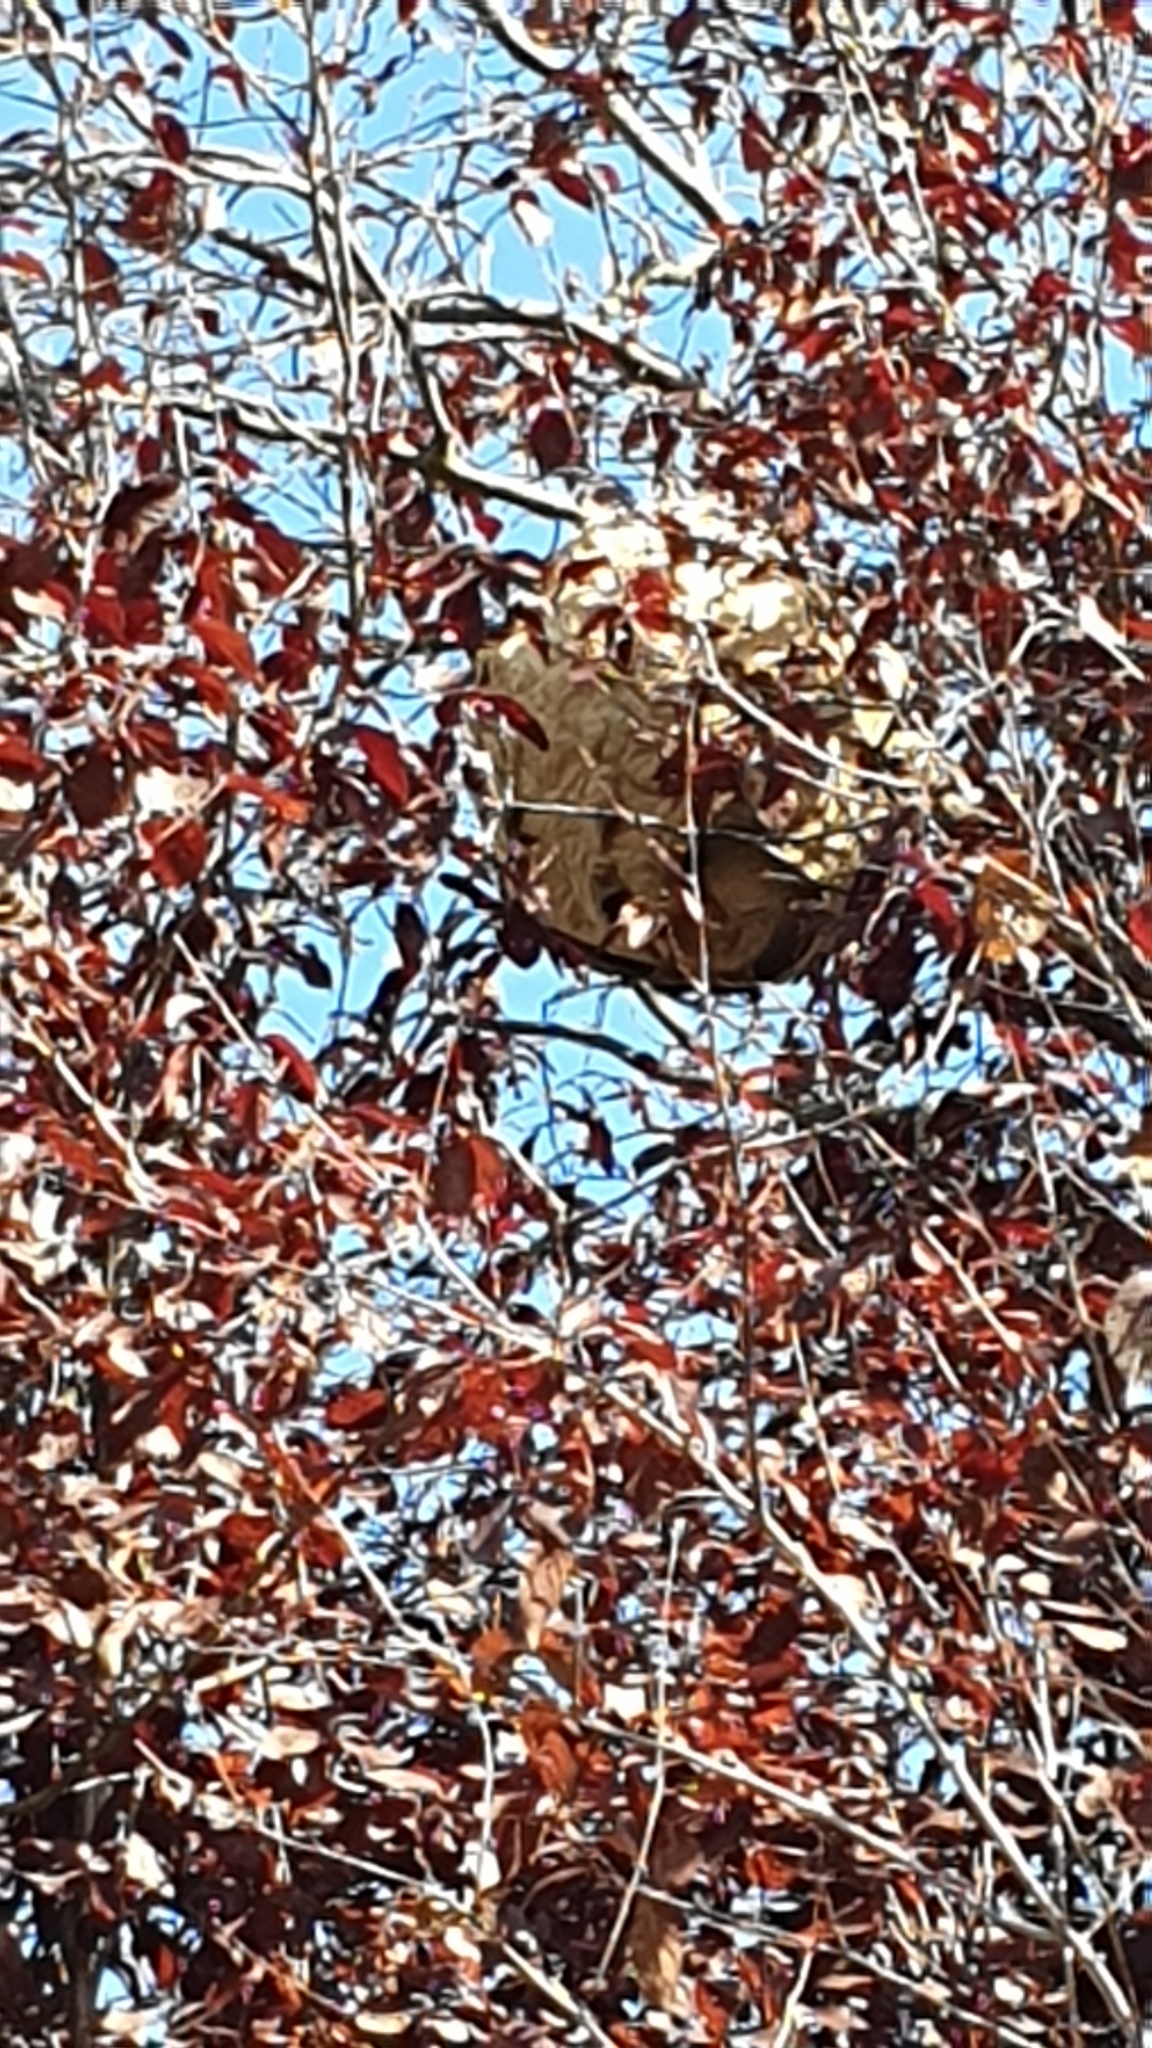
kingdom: Animalia
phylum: Arthropoda
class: Insecta
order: Hymenoptera
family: Vespidae
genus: Vespa
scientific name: Vespa velutina
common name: Asian hornet
